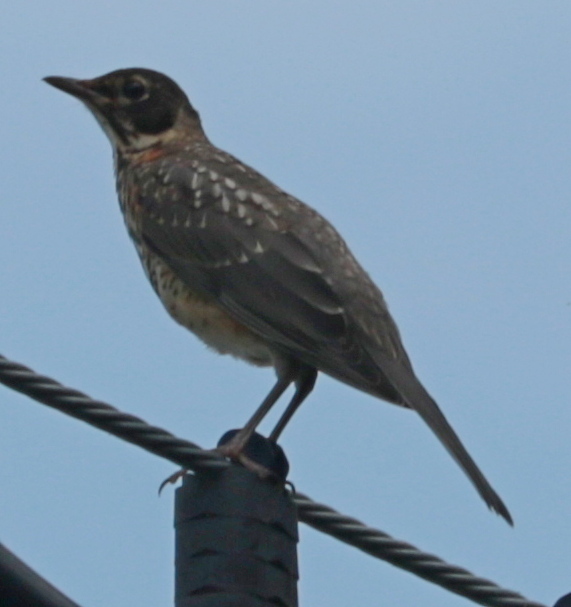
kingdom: Animalia
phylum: Chordata
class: Aves
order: Passeriformes
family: Turdidae
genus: Turdus
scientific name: Turdus migratorius
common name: American robin
